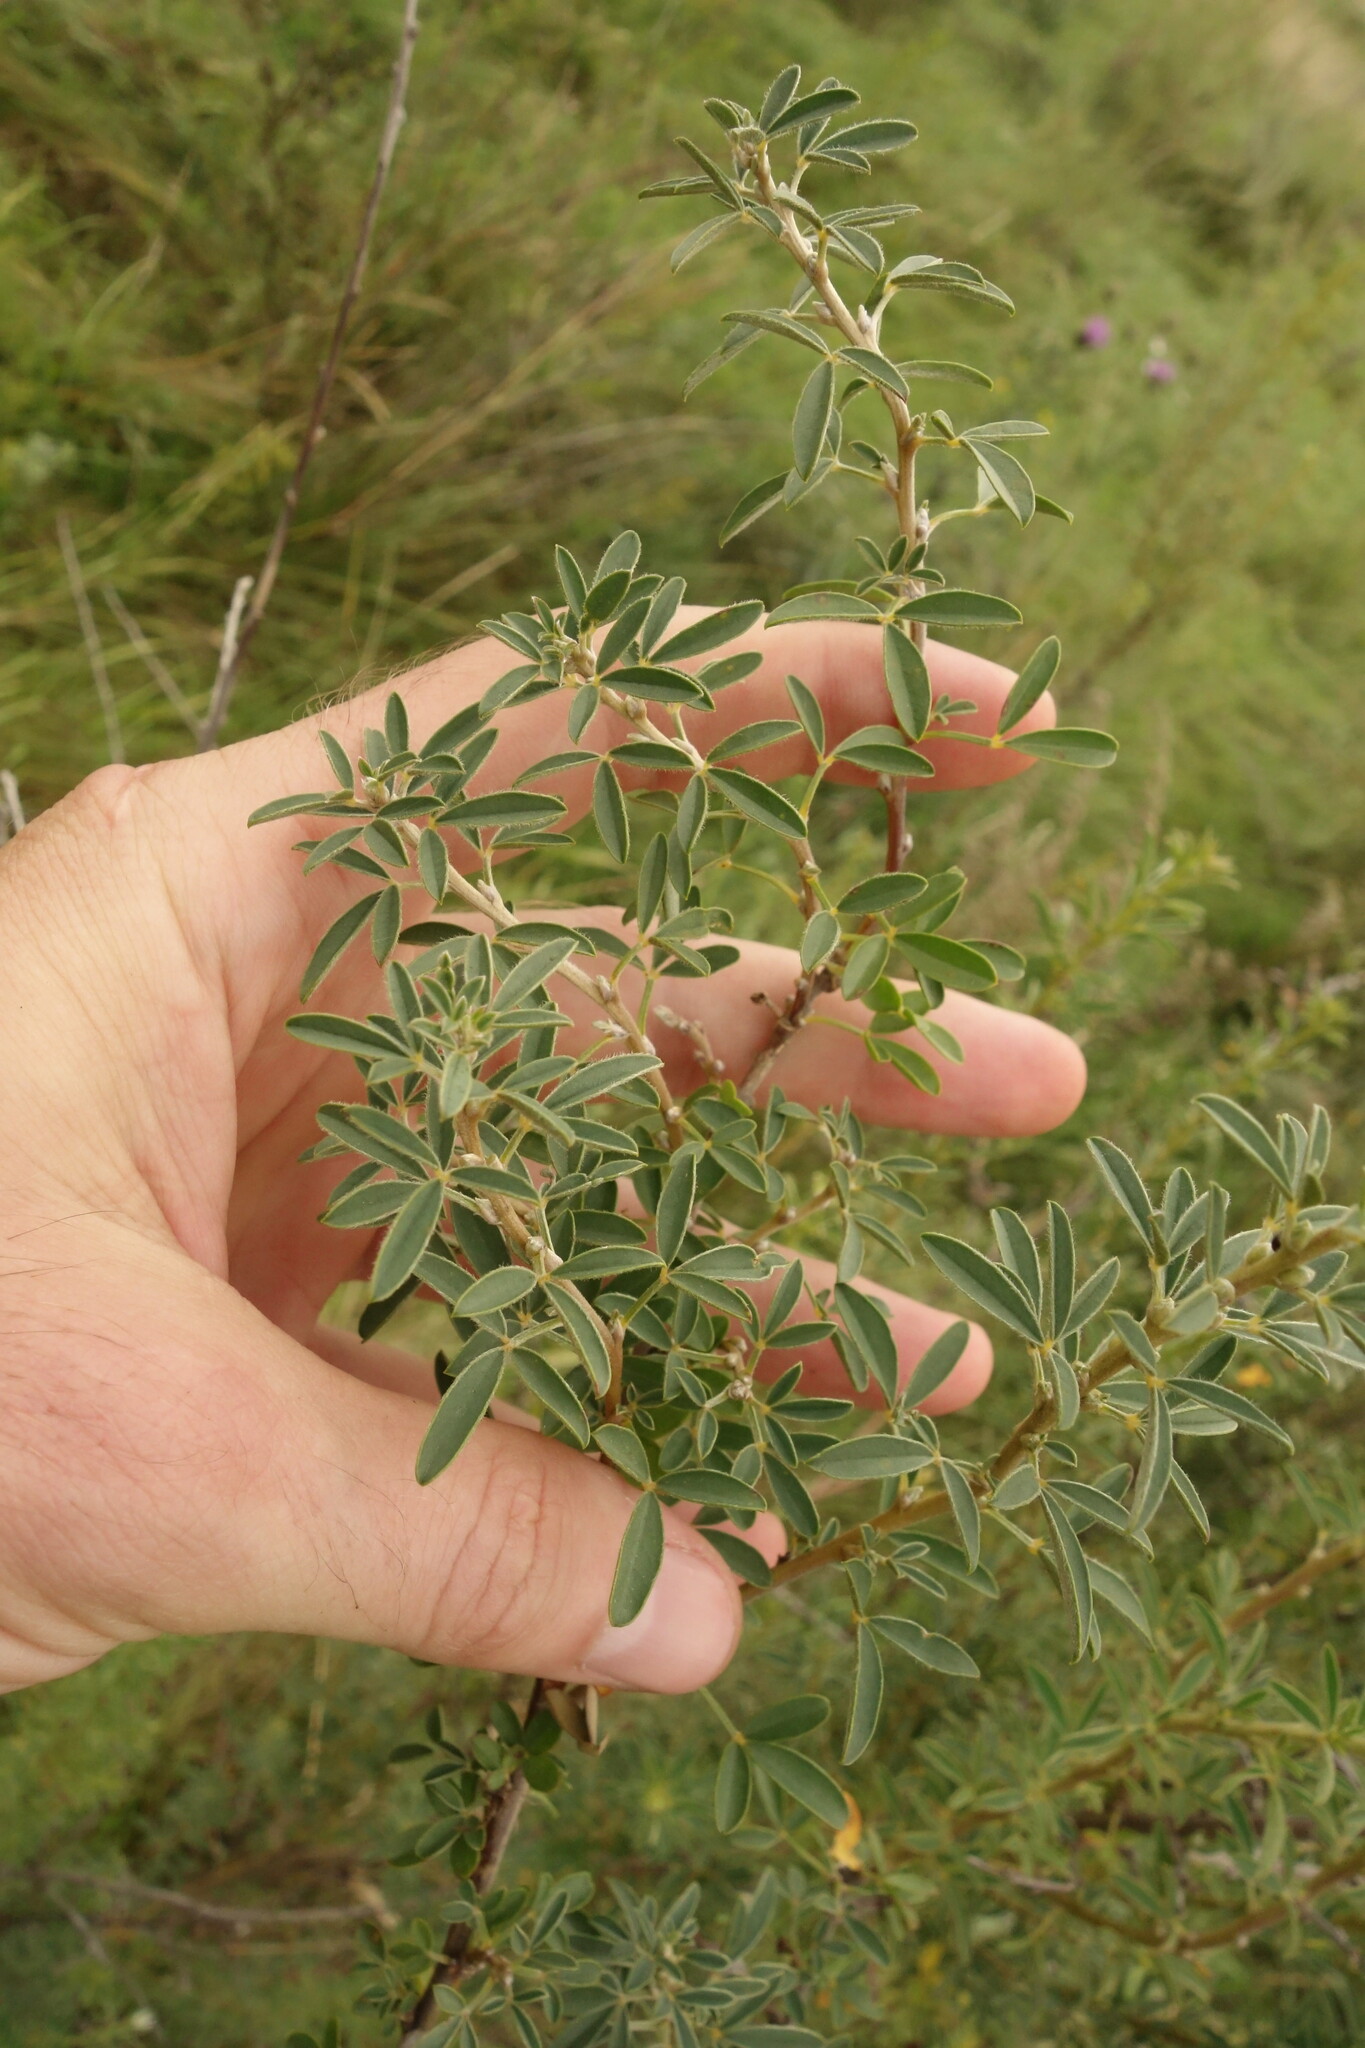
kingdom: Plantae
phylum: Tracheophyta
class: Magnoliopsida
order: Fabales
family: Fabaceae
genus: Chamaecytisus
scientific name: Chamaecytisus ruthenicus
